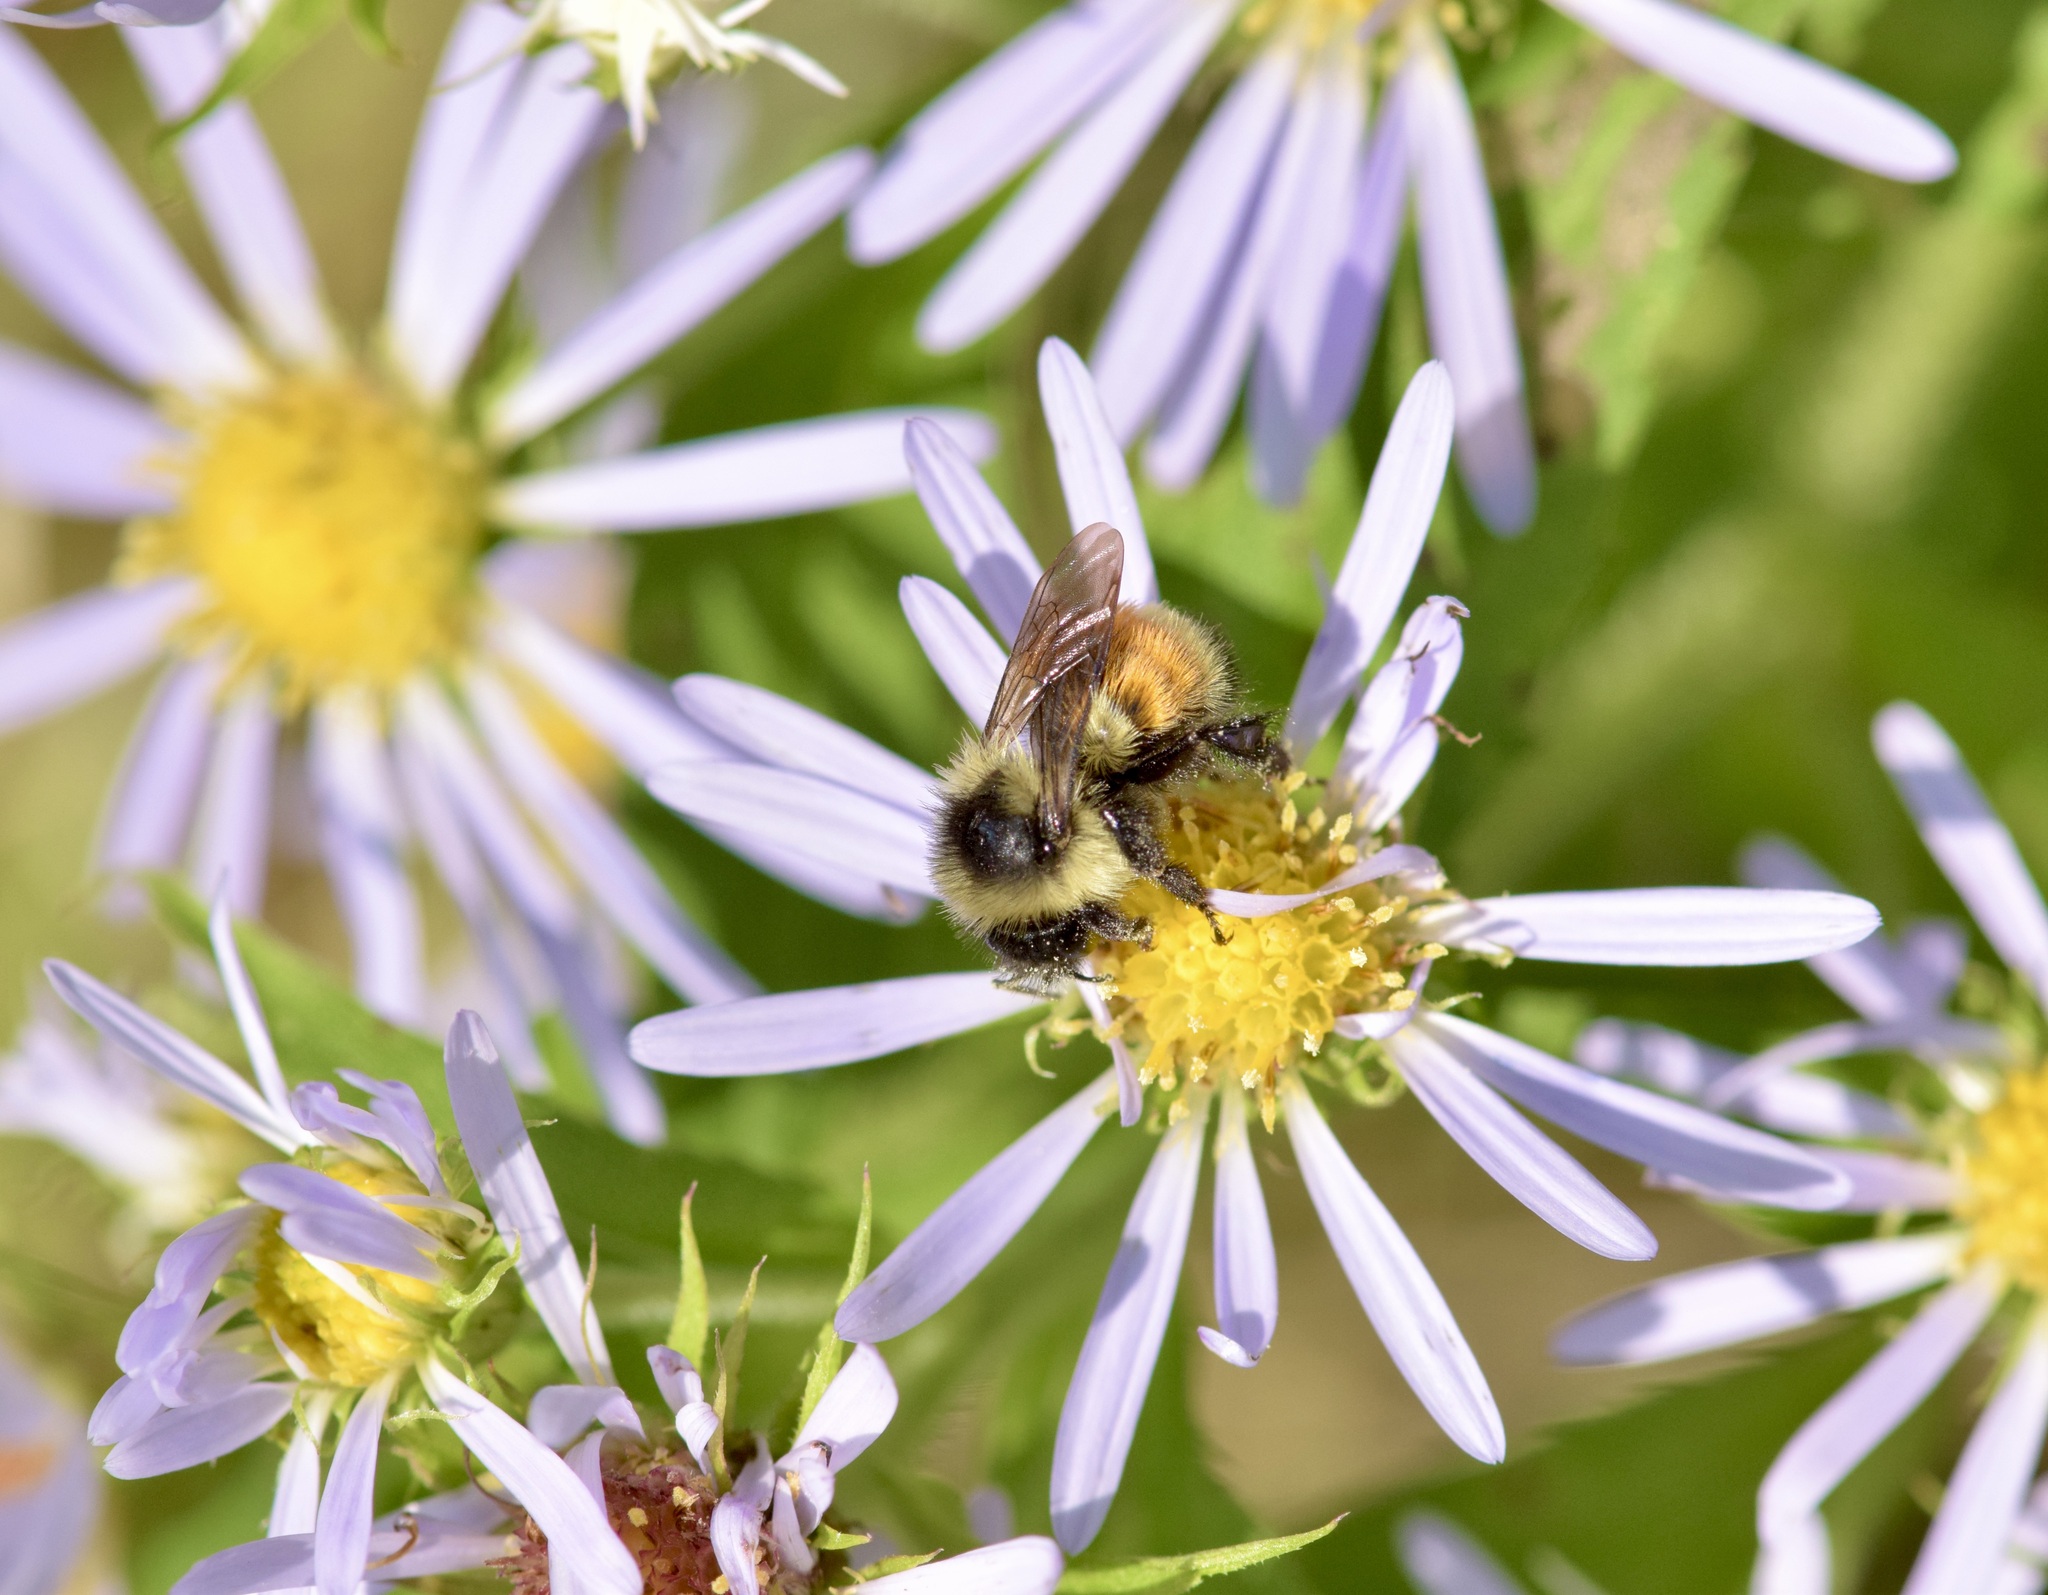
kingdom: Animalia
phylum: Arthropoda
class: Insecta
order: Hymenoptera
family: Apidae
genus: Bombus
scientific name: Bombus ternarius
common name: Tri-colored bumble bee
